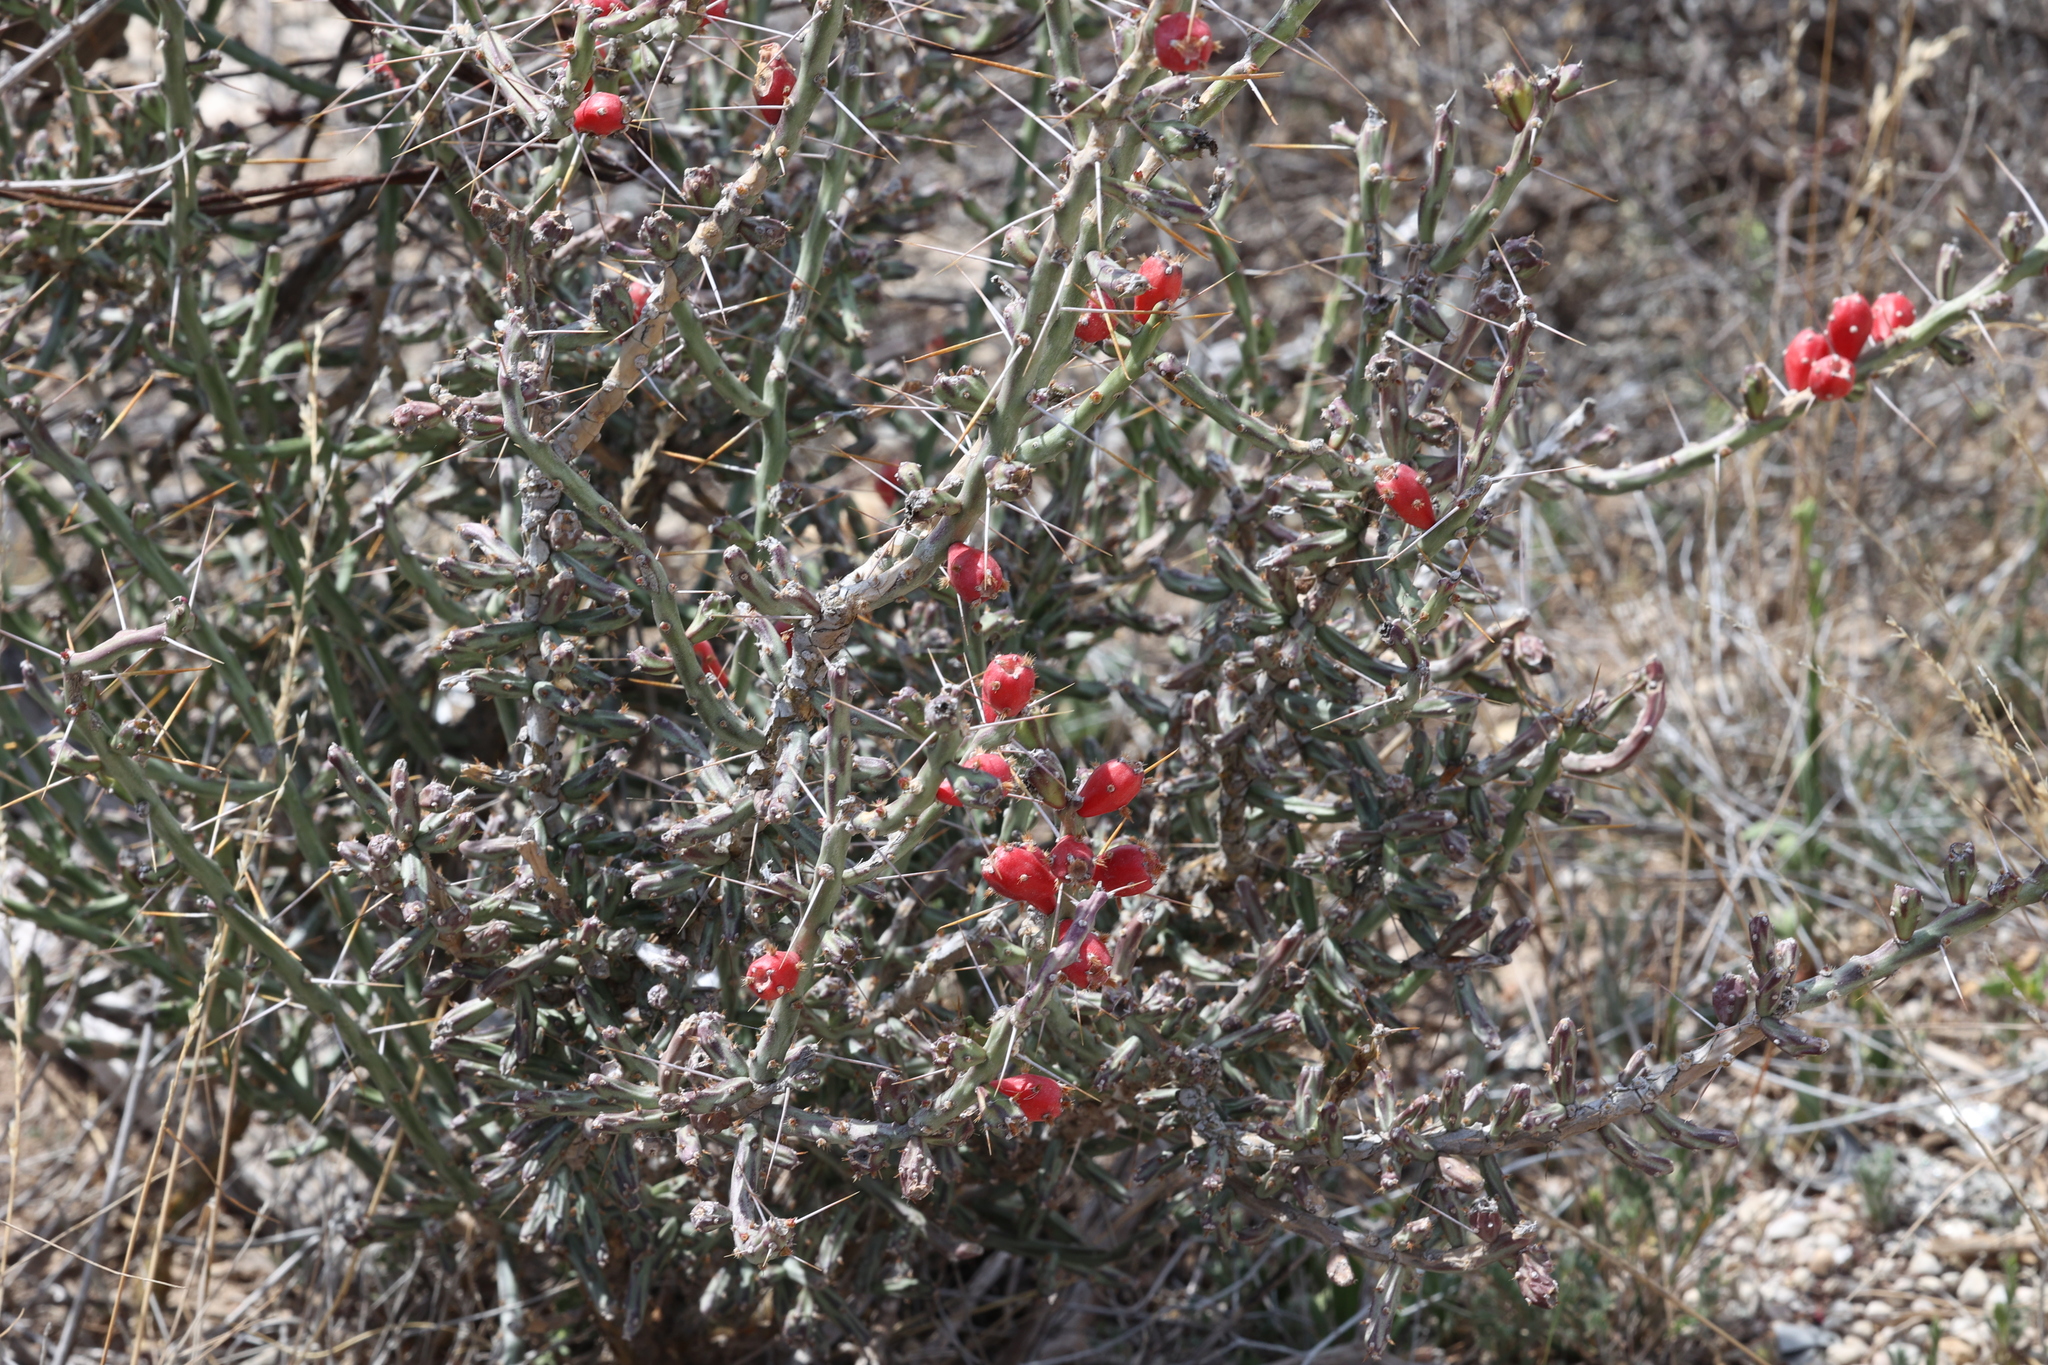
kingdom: Plantae
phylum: Tracheophyta
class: Magnoliopsida
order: Caryophyllales
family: Cactaceae
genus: Cylindropuntia
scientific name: Cylindropuntia leptocaulis
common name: Christmas cactus
